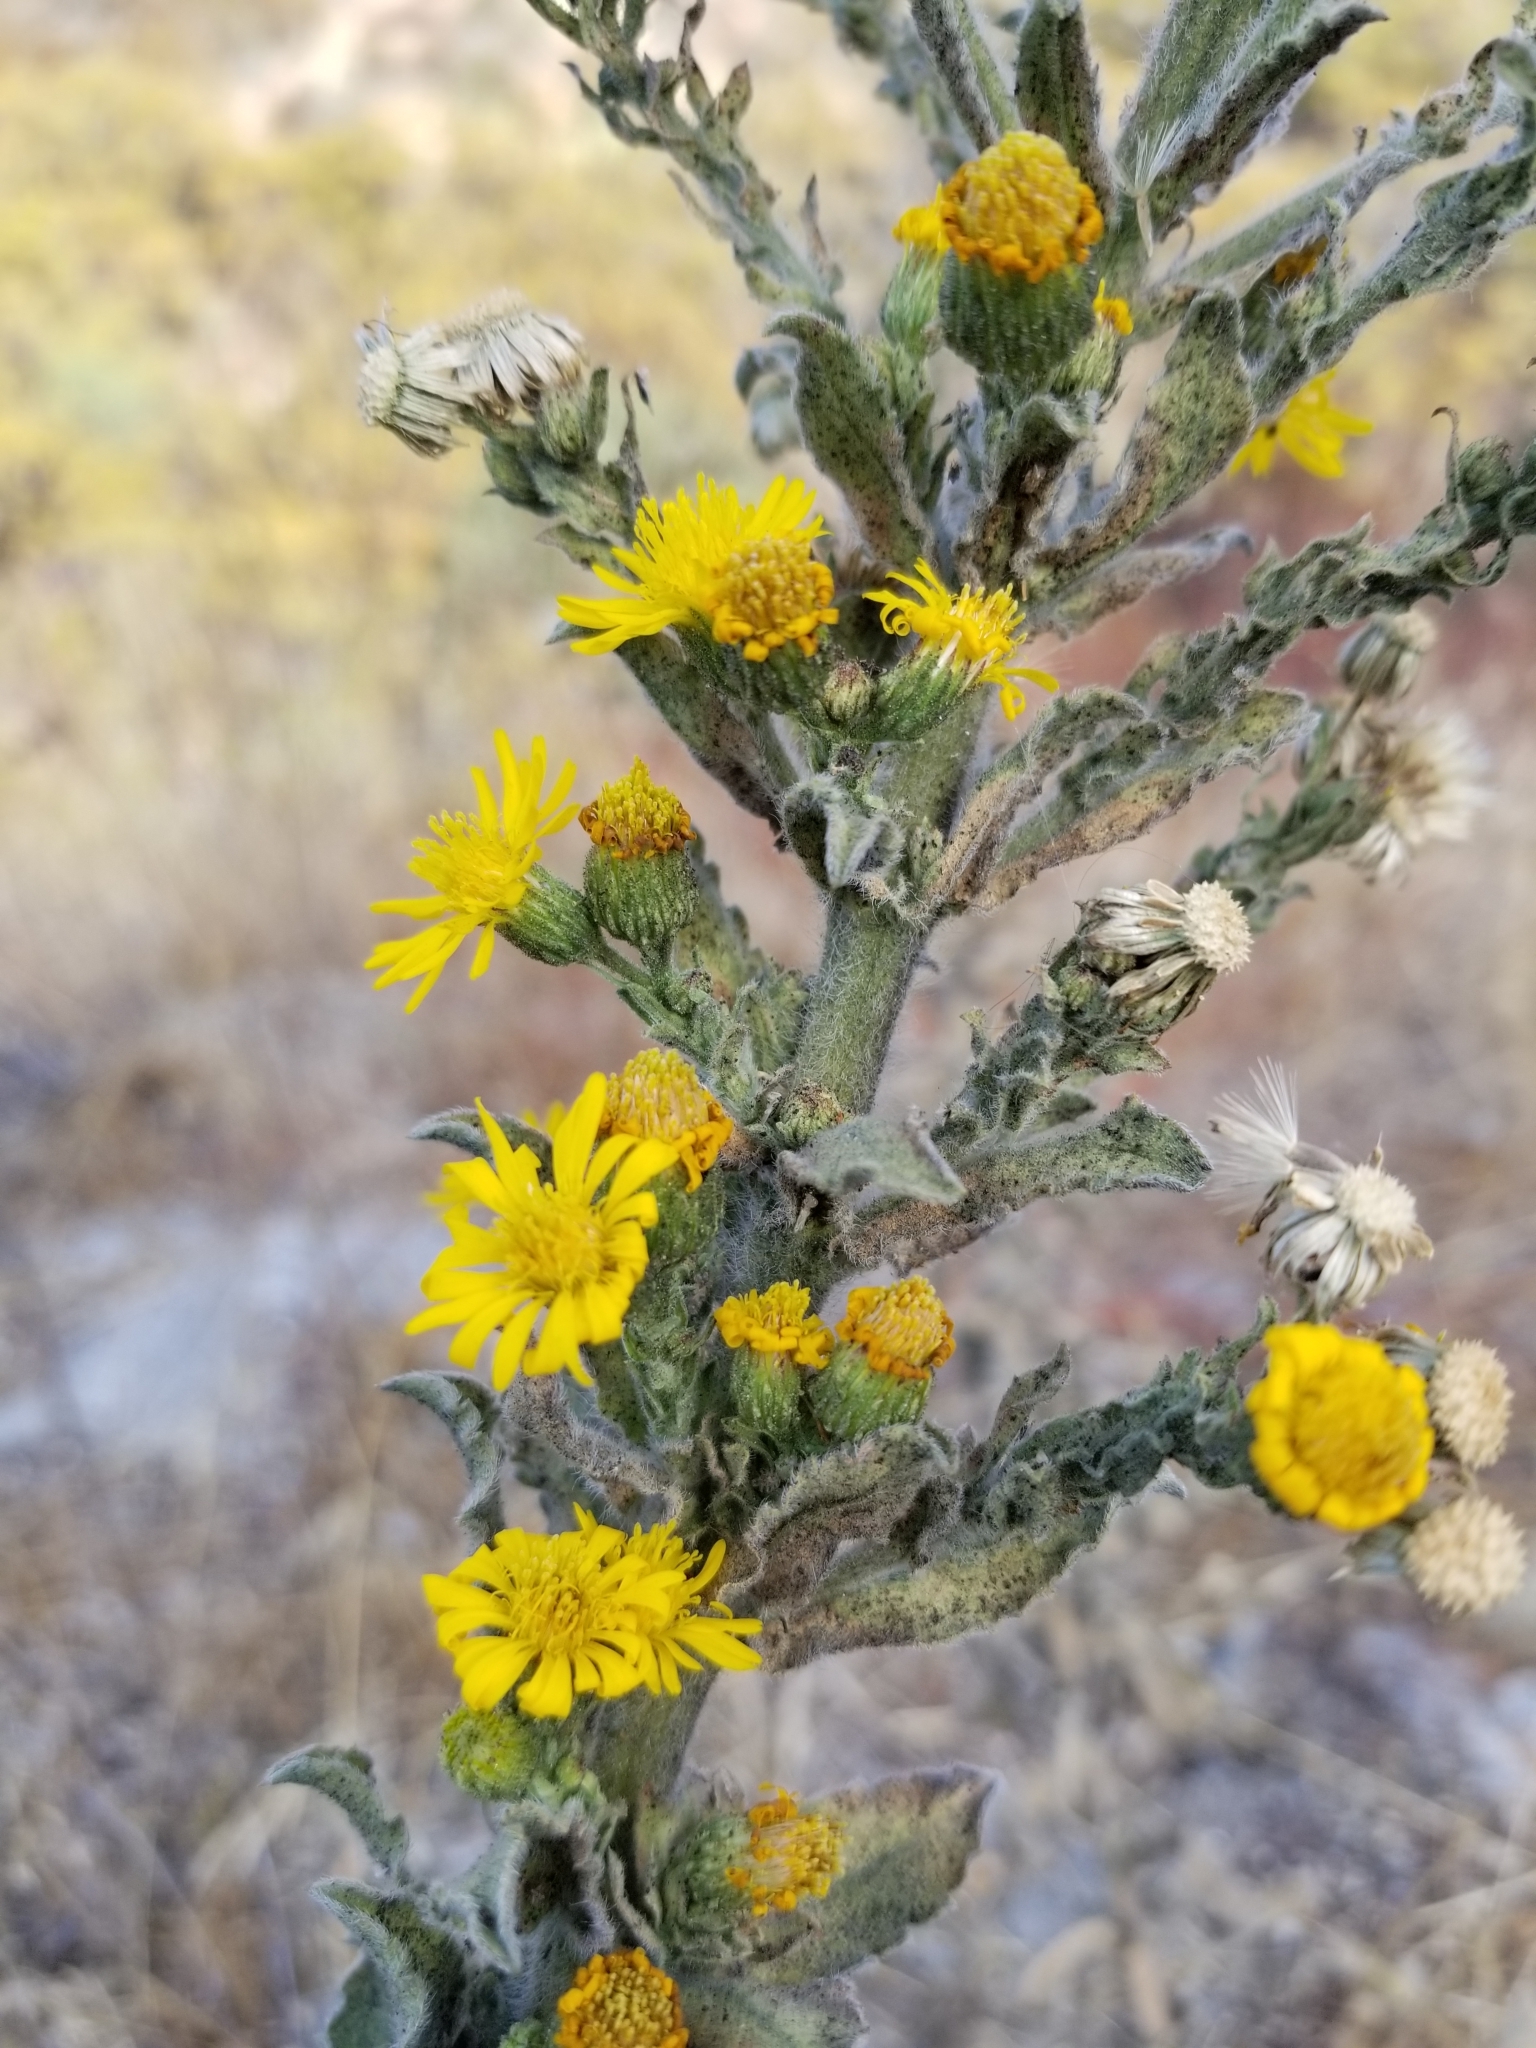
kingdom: Plantae
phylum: Tracheophyta
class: Magnoliopsida
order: Asterales
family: Asteraceae
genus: Heterotheca
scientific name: Heterotheca grandiflora
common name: Telegraphweed
